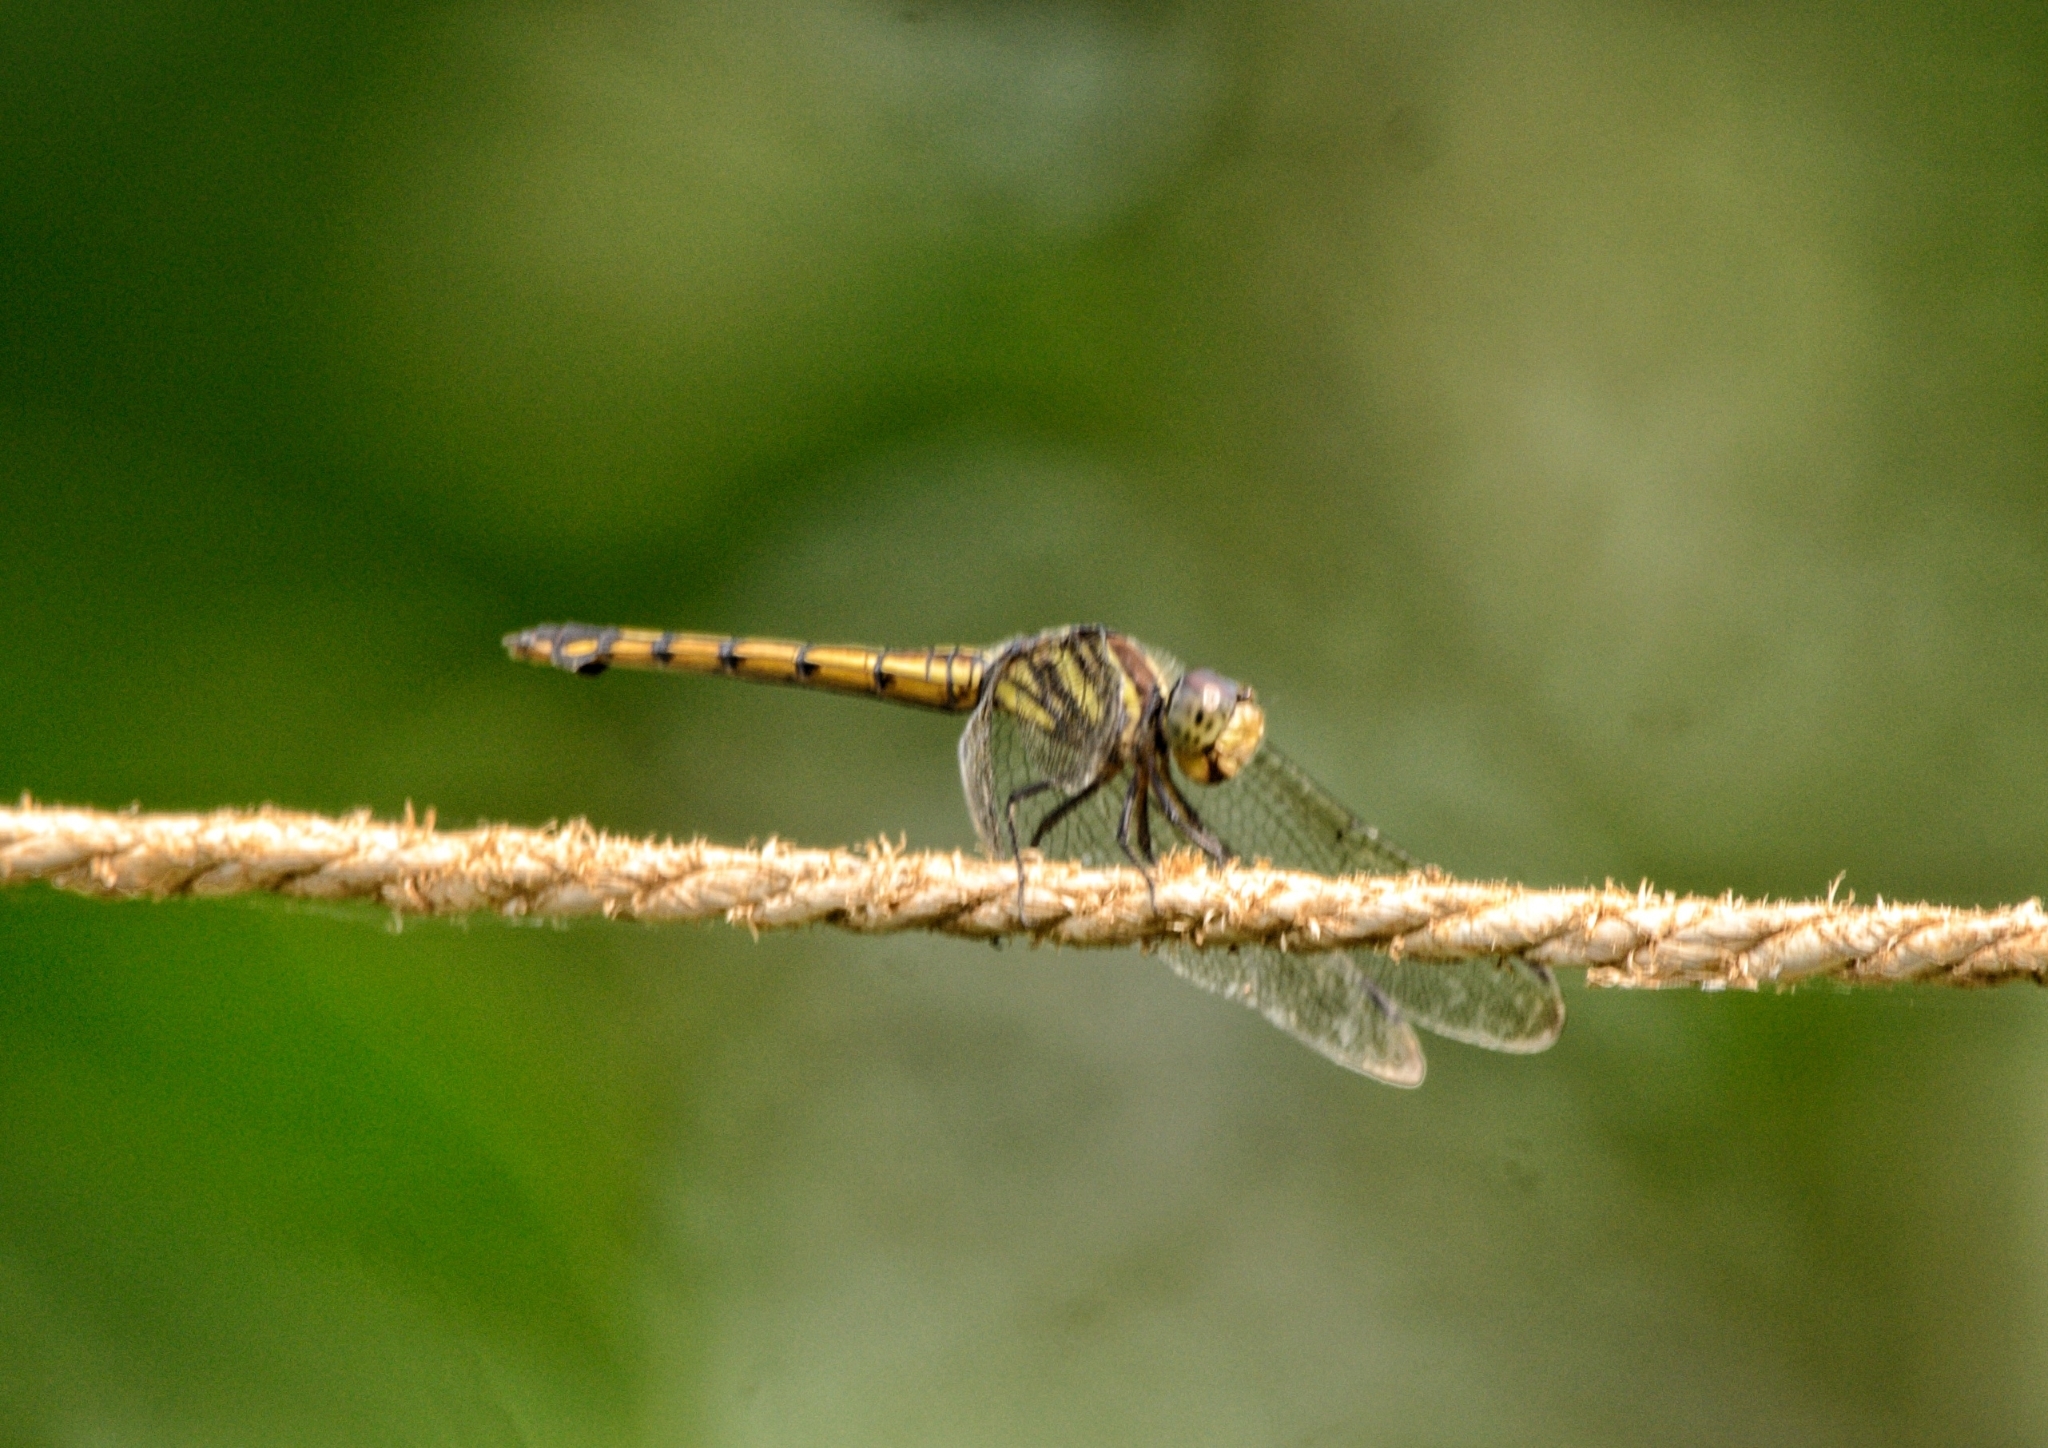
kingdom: Animalia
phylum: Arthropoda
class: Insecta
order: Odonata
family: Libellulidae
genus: Potamarcha
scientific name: Potamarcha congener
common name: Blue chaser
